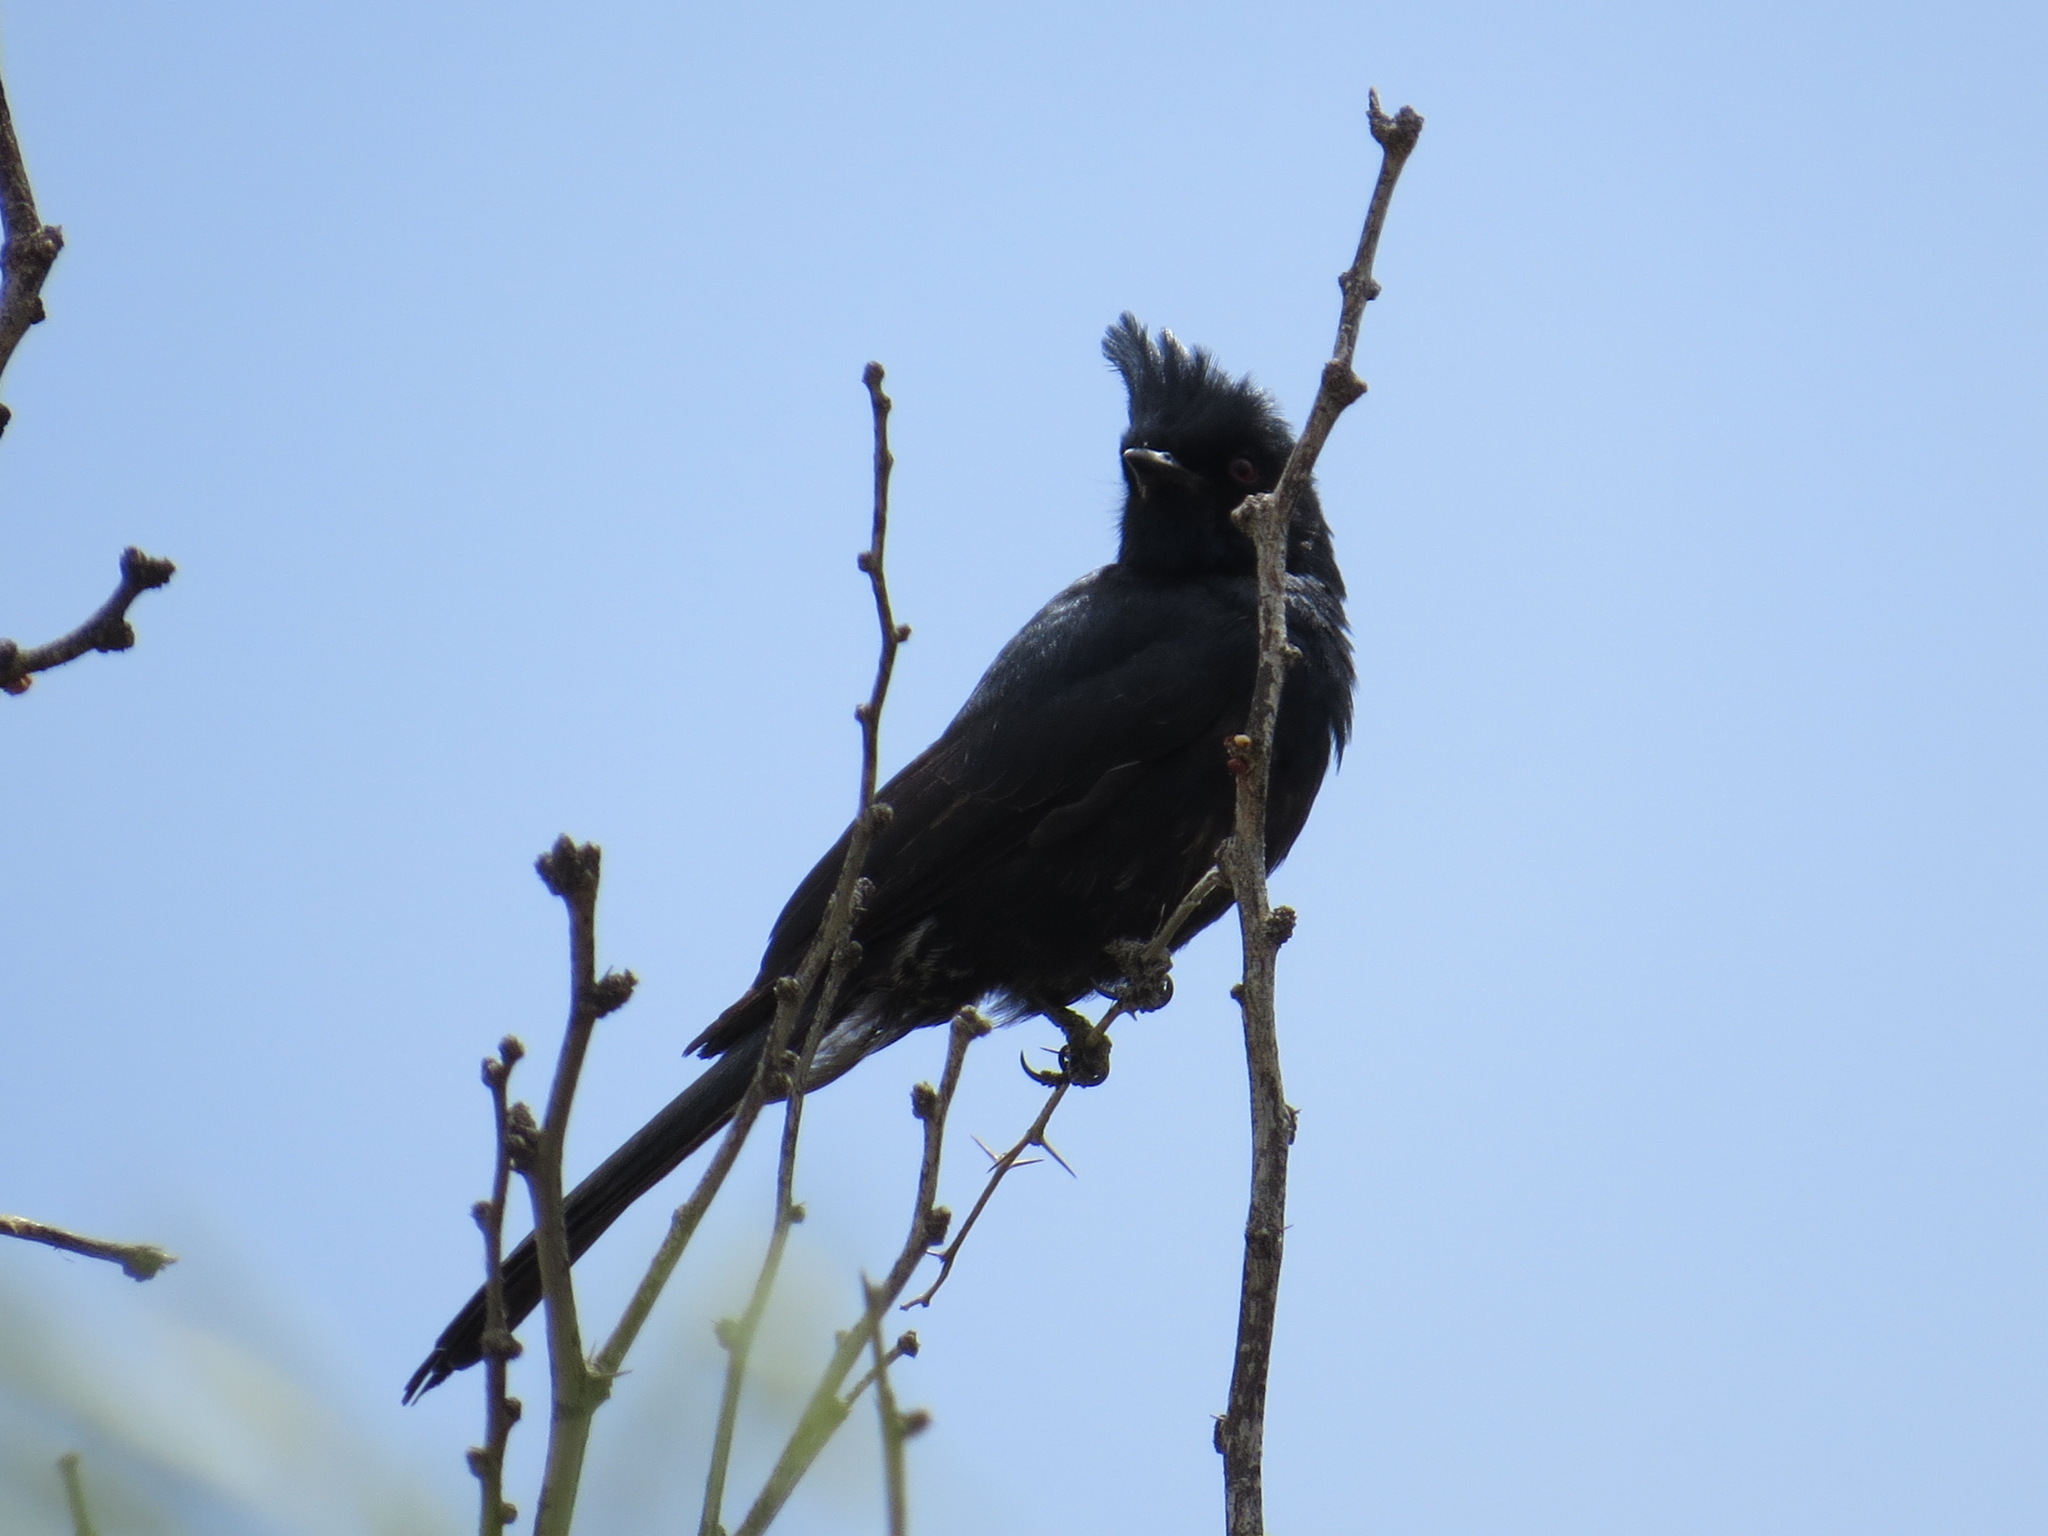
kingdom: Animalia
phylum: Chordata
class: Aves
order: Passeriformes
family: Ptilogonatidae
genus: Phainopepla
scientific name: Phainopepla nitens
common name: Phainopepla
